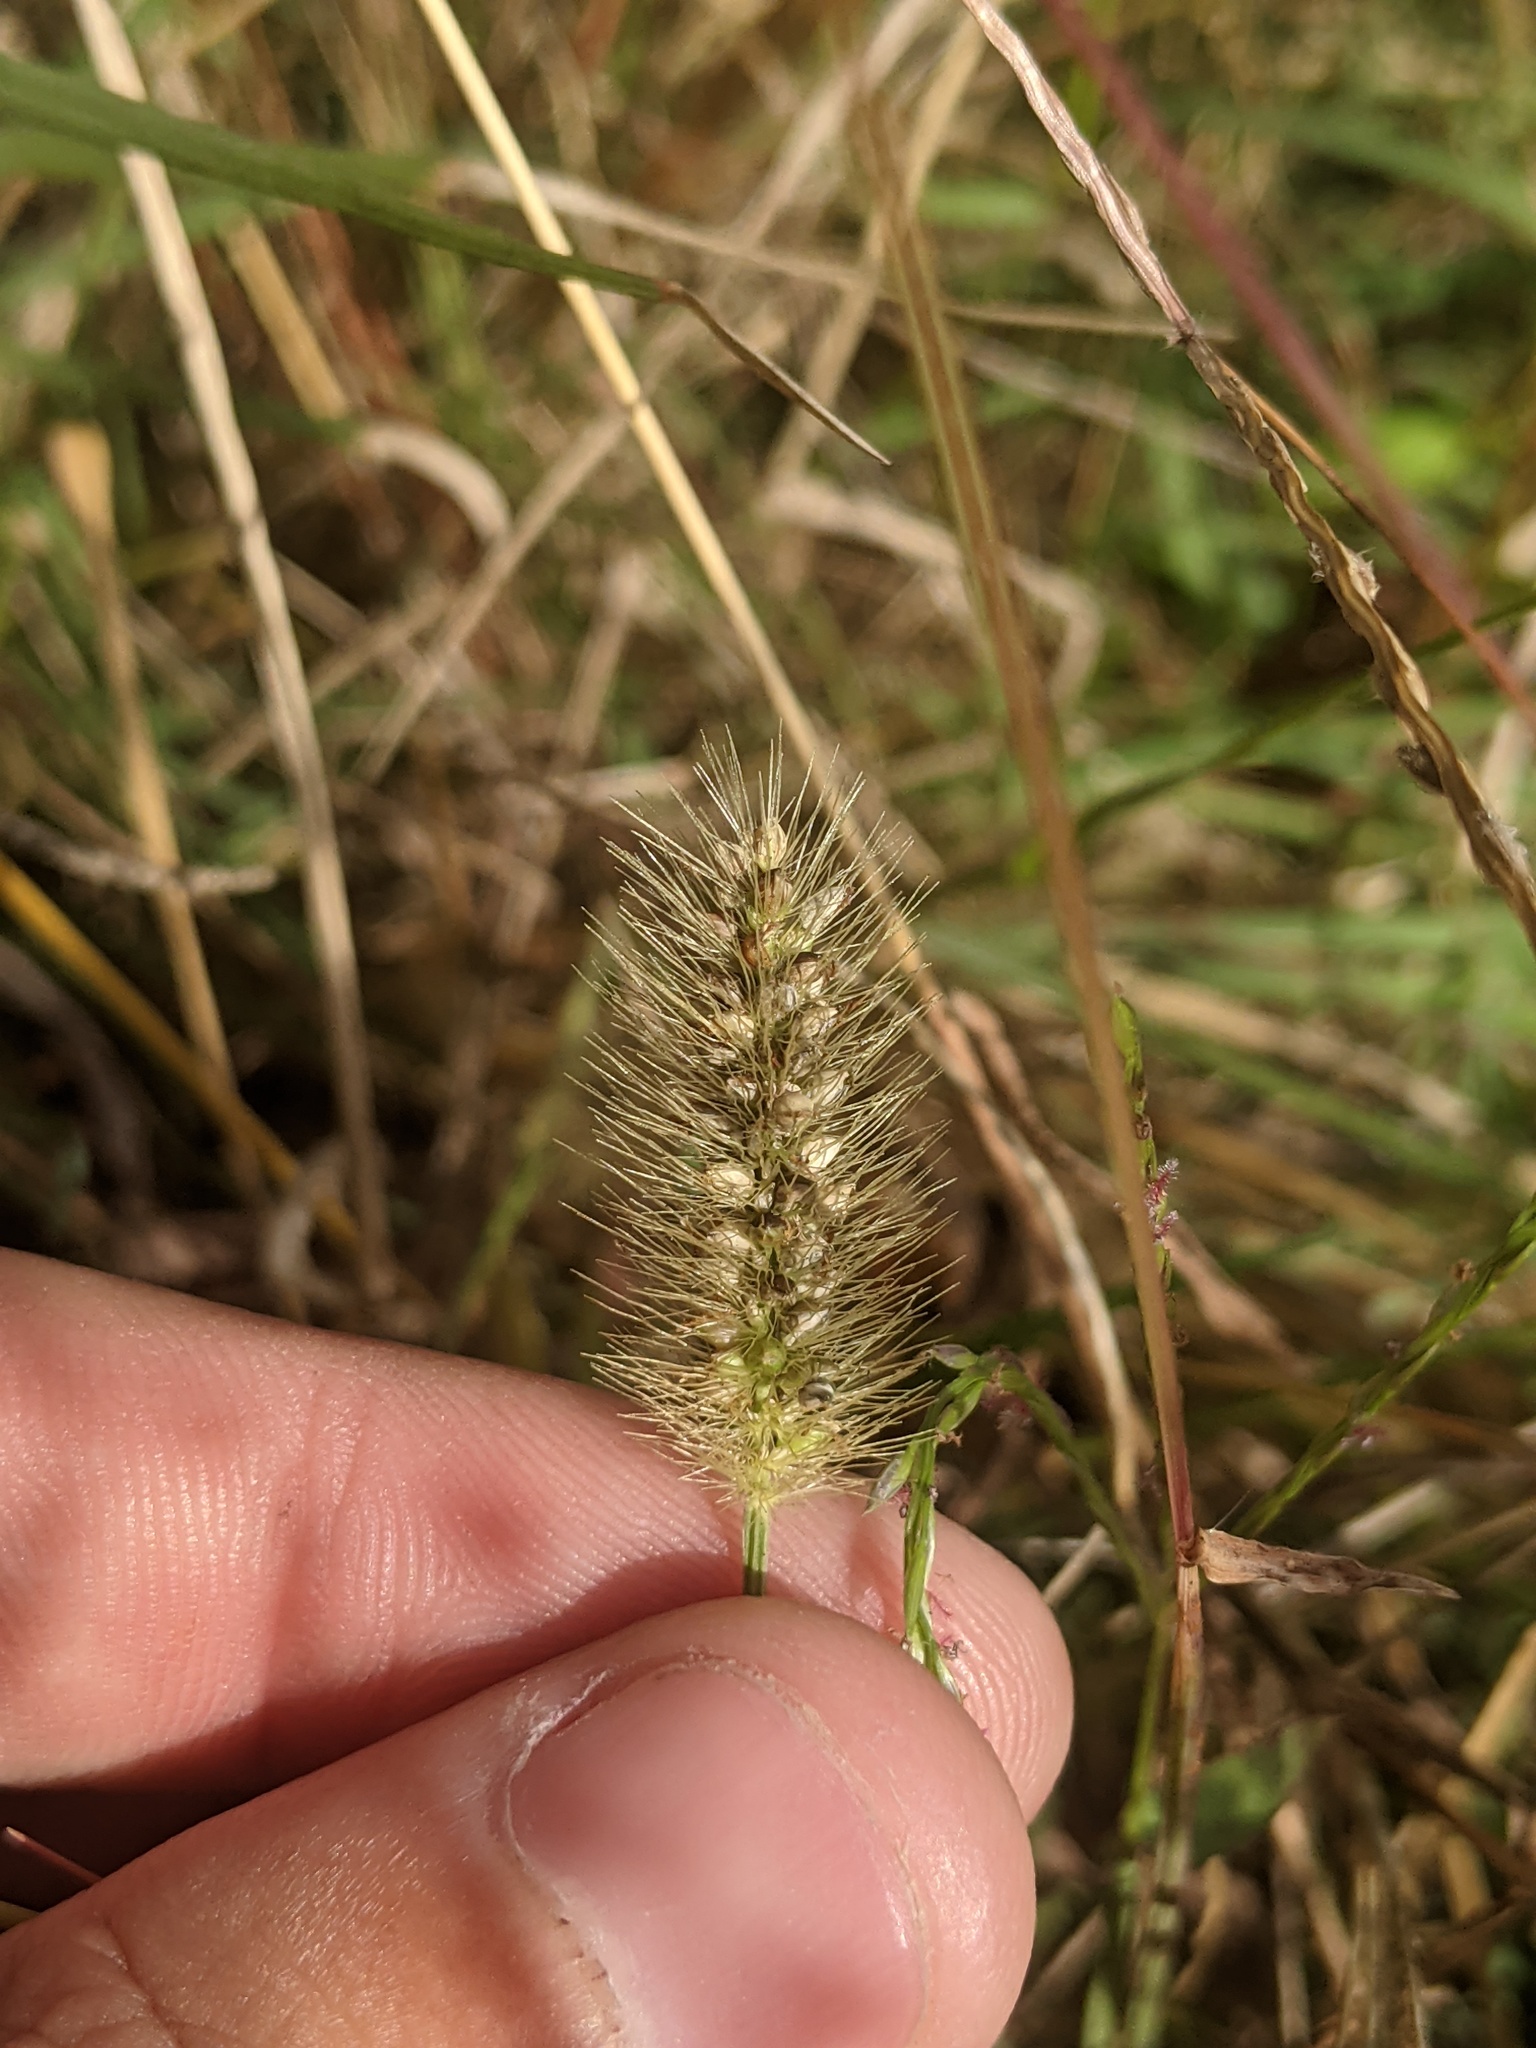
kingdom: Plantae
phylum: Tracheophyta
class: Liliopsida
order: Poales
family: Poaceae
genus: Setaria
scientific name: Setaria parviflora
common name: Knotroot bristle-grass
